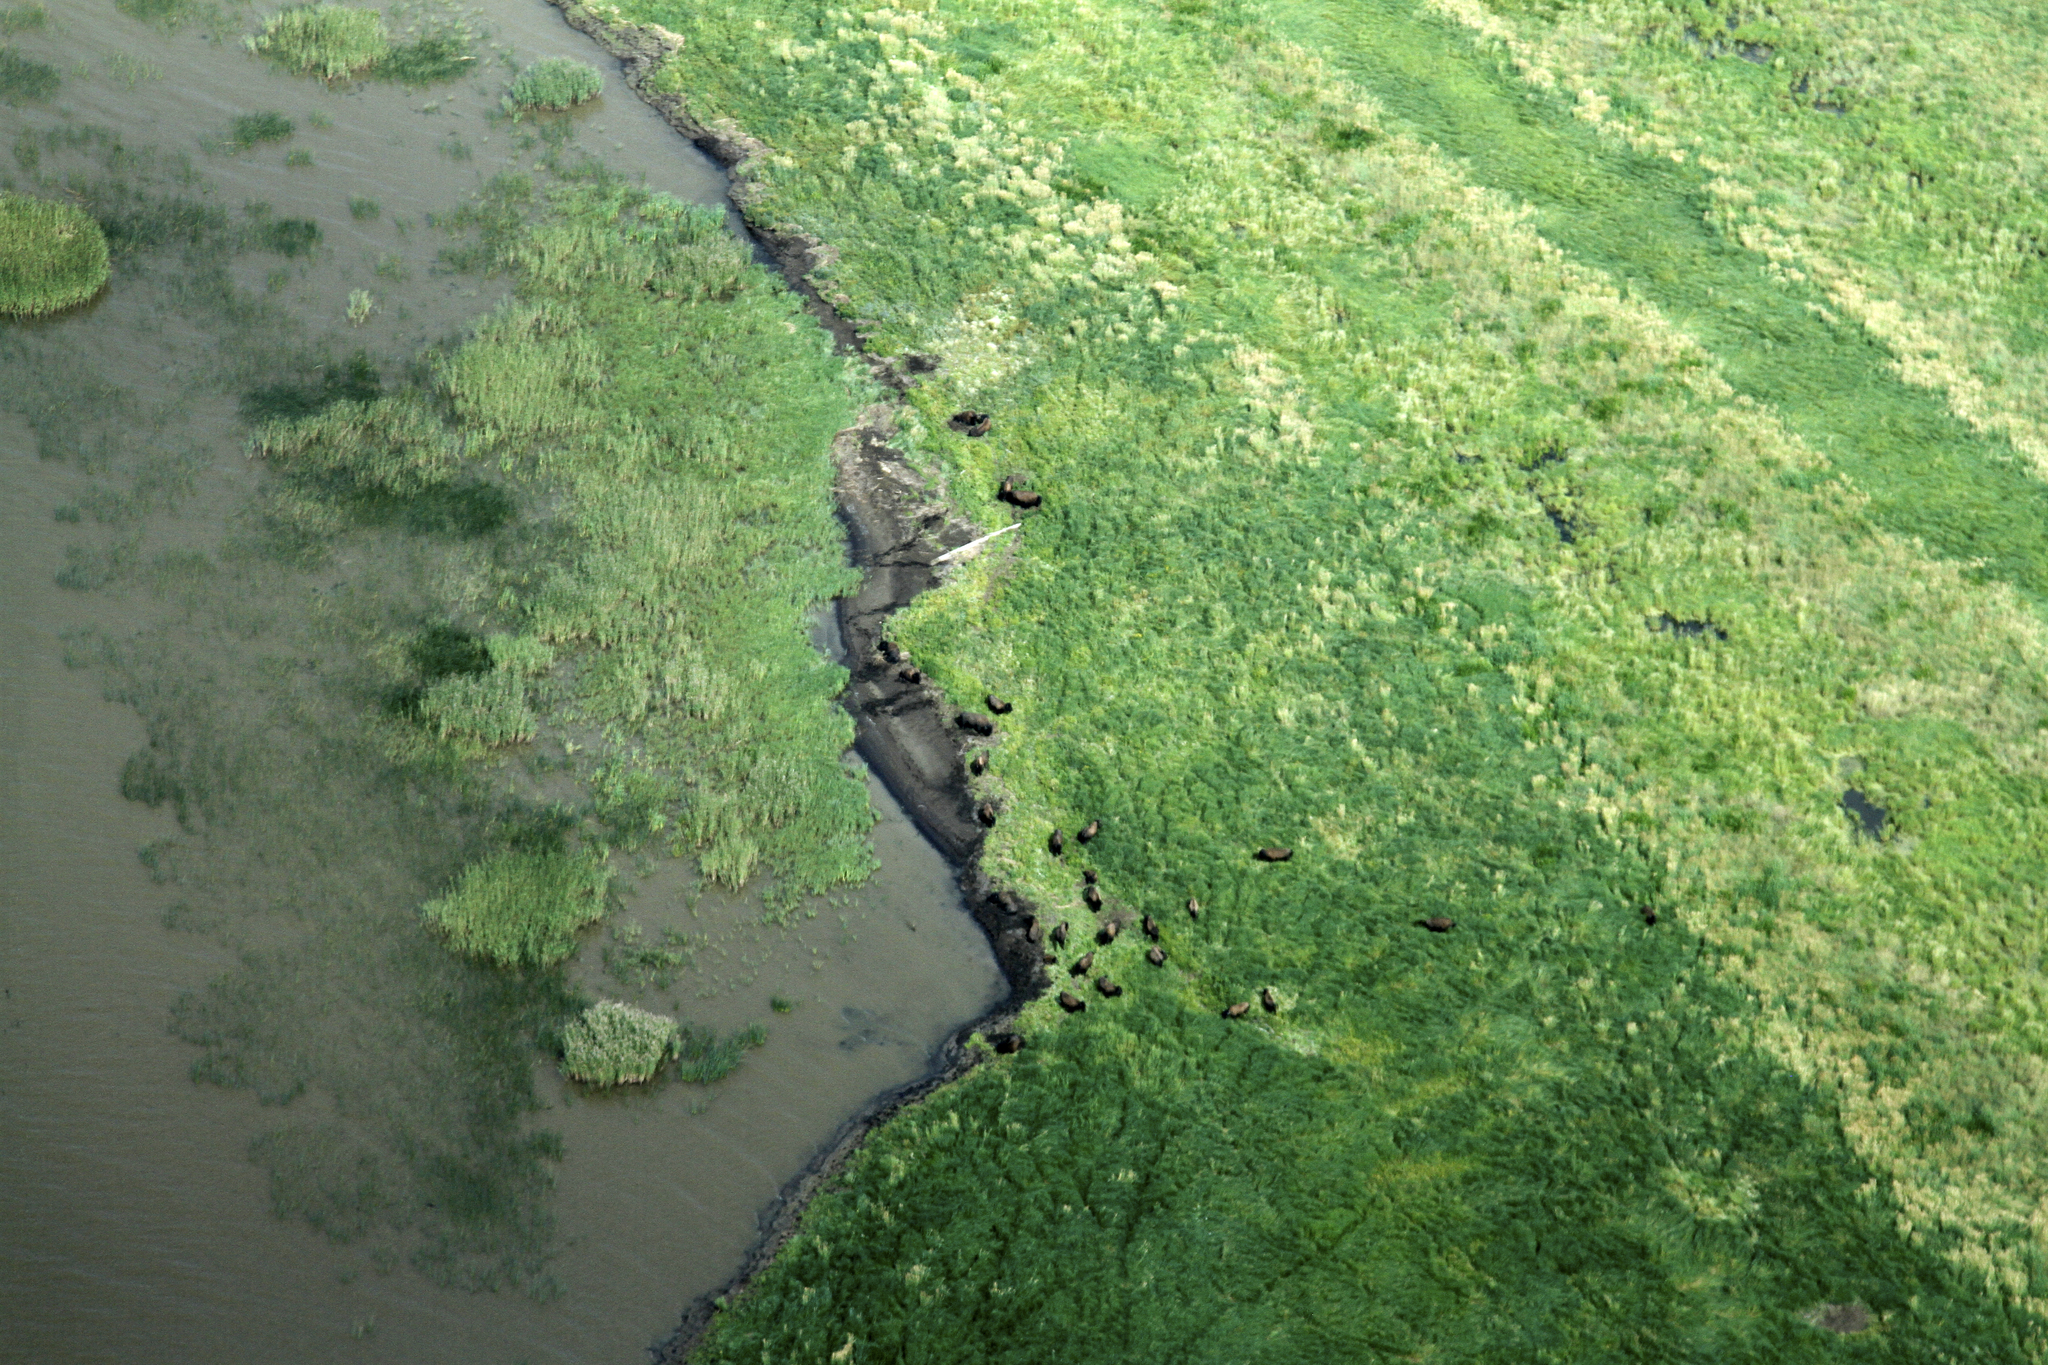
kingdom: Animalia
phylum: Chordata
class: Mammalia
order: Artiodactyla
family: Bovidae
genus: Bison
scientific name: Bison bison
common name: American bison
